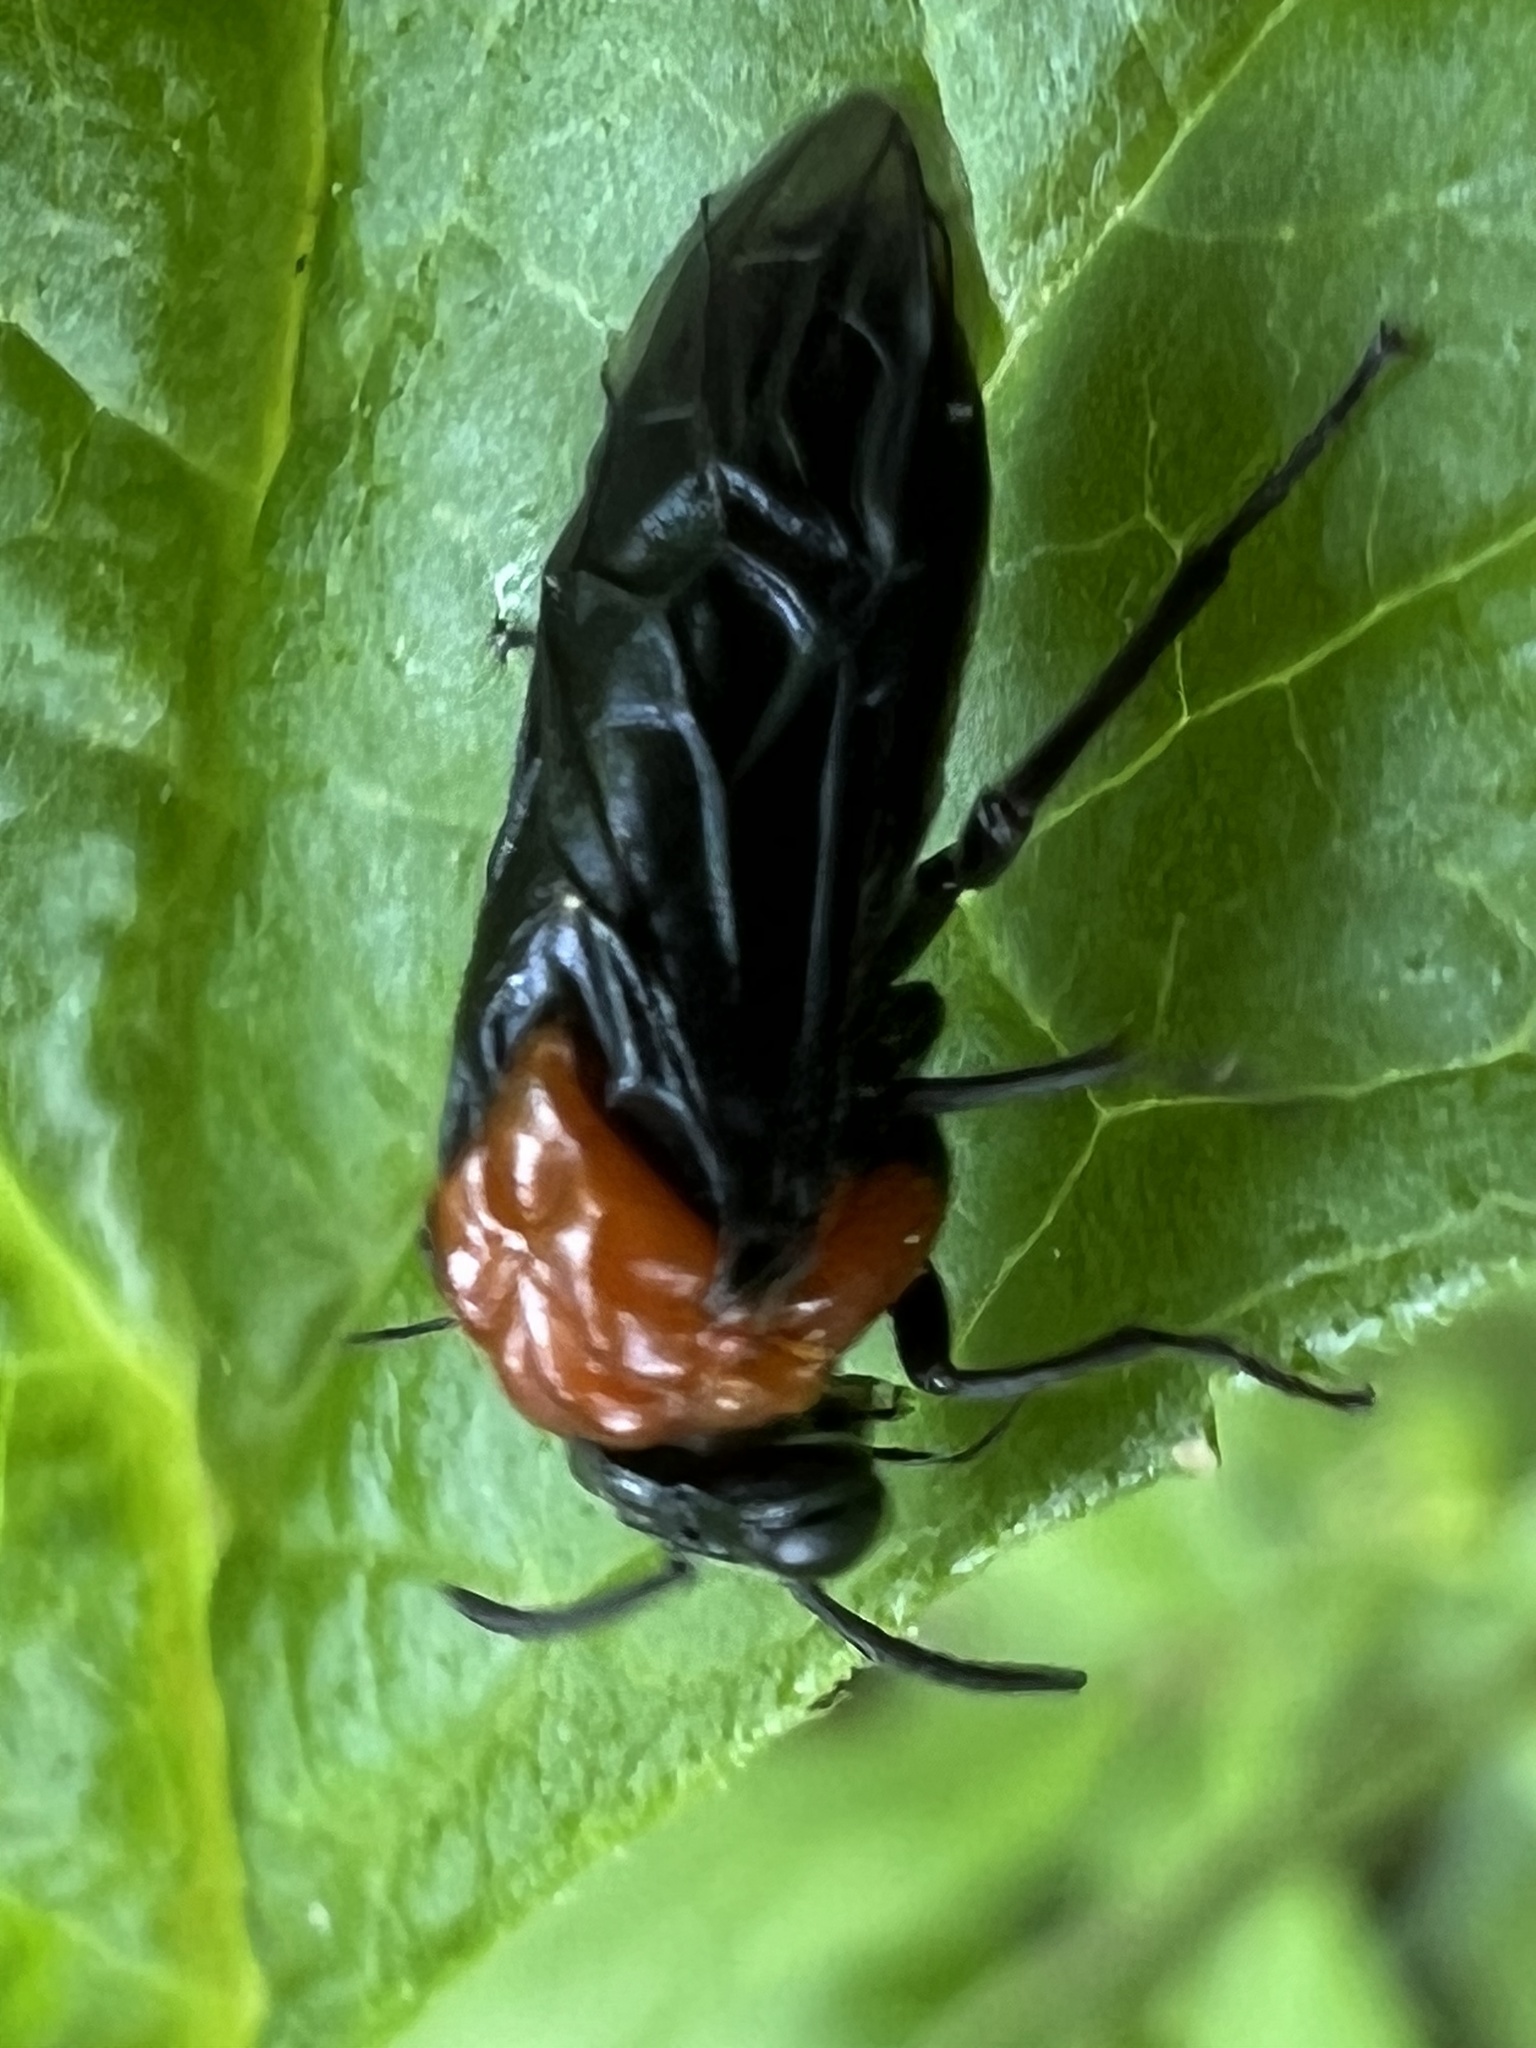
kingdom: Animalia
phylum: Arthropoda
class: Insecta
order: Hymenoptera
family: Tenthredinidae
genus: Tethida
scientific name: Tethida barda
